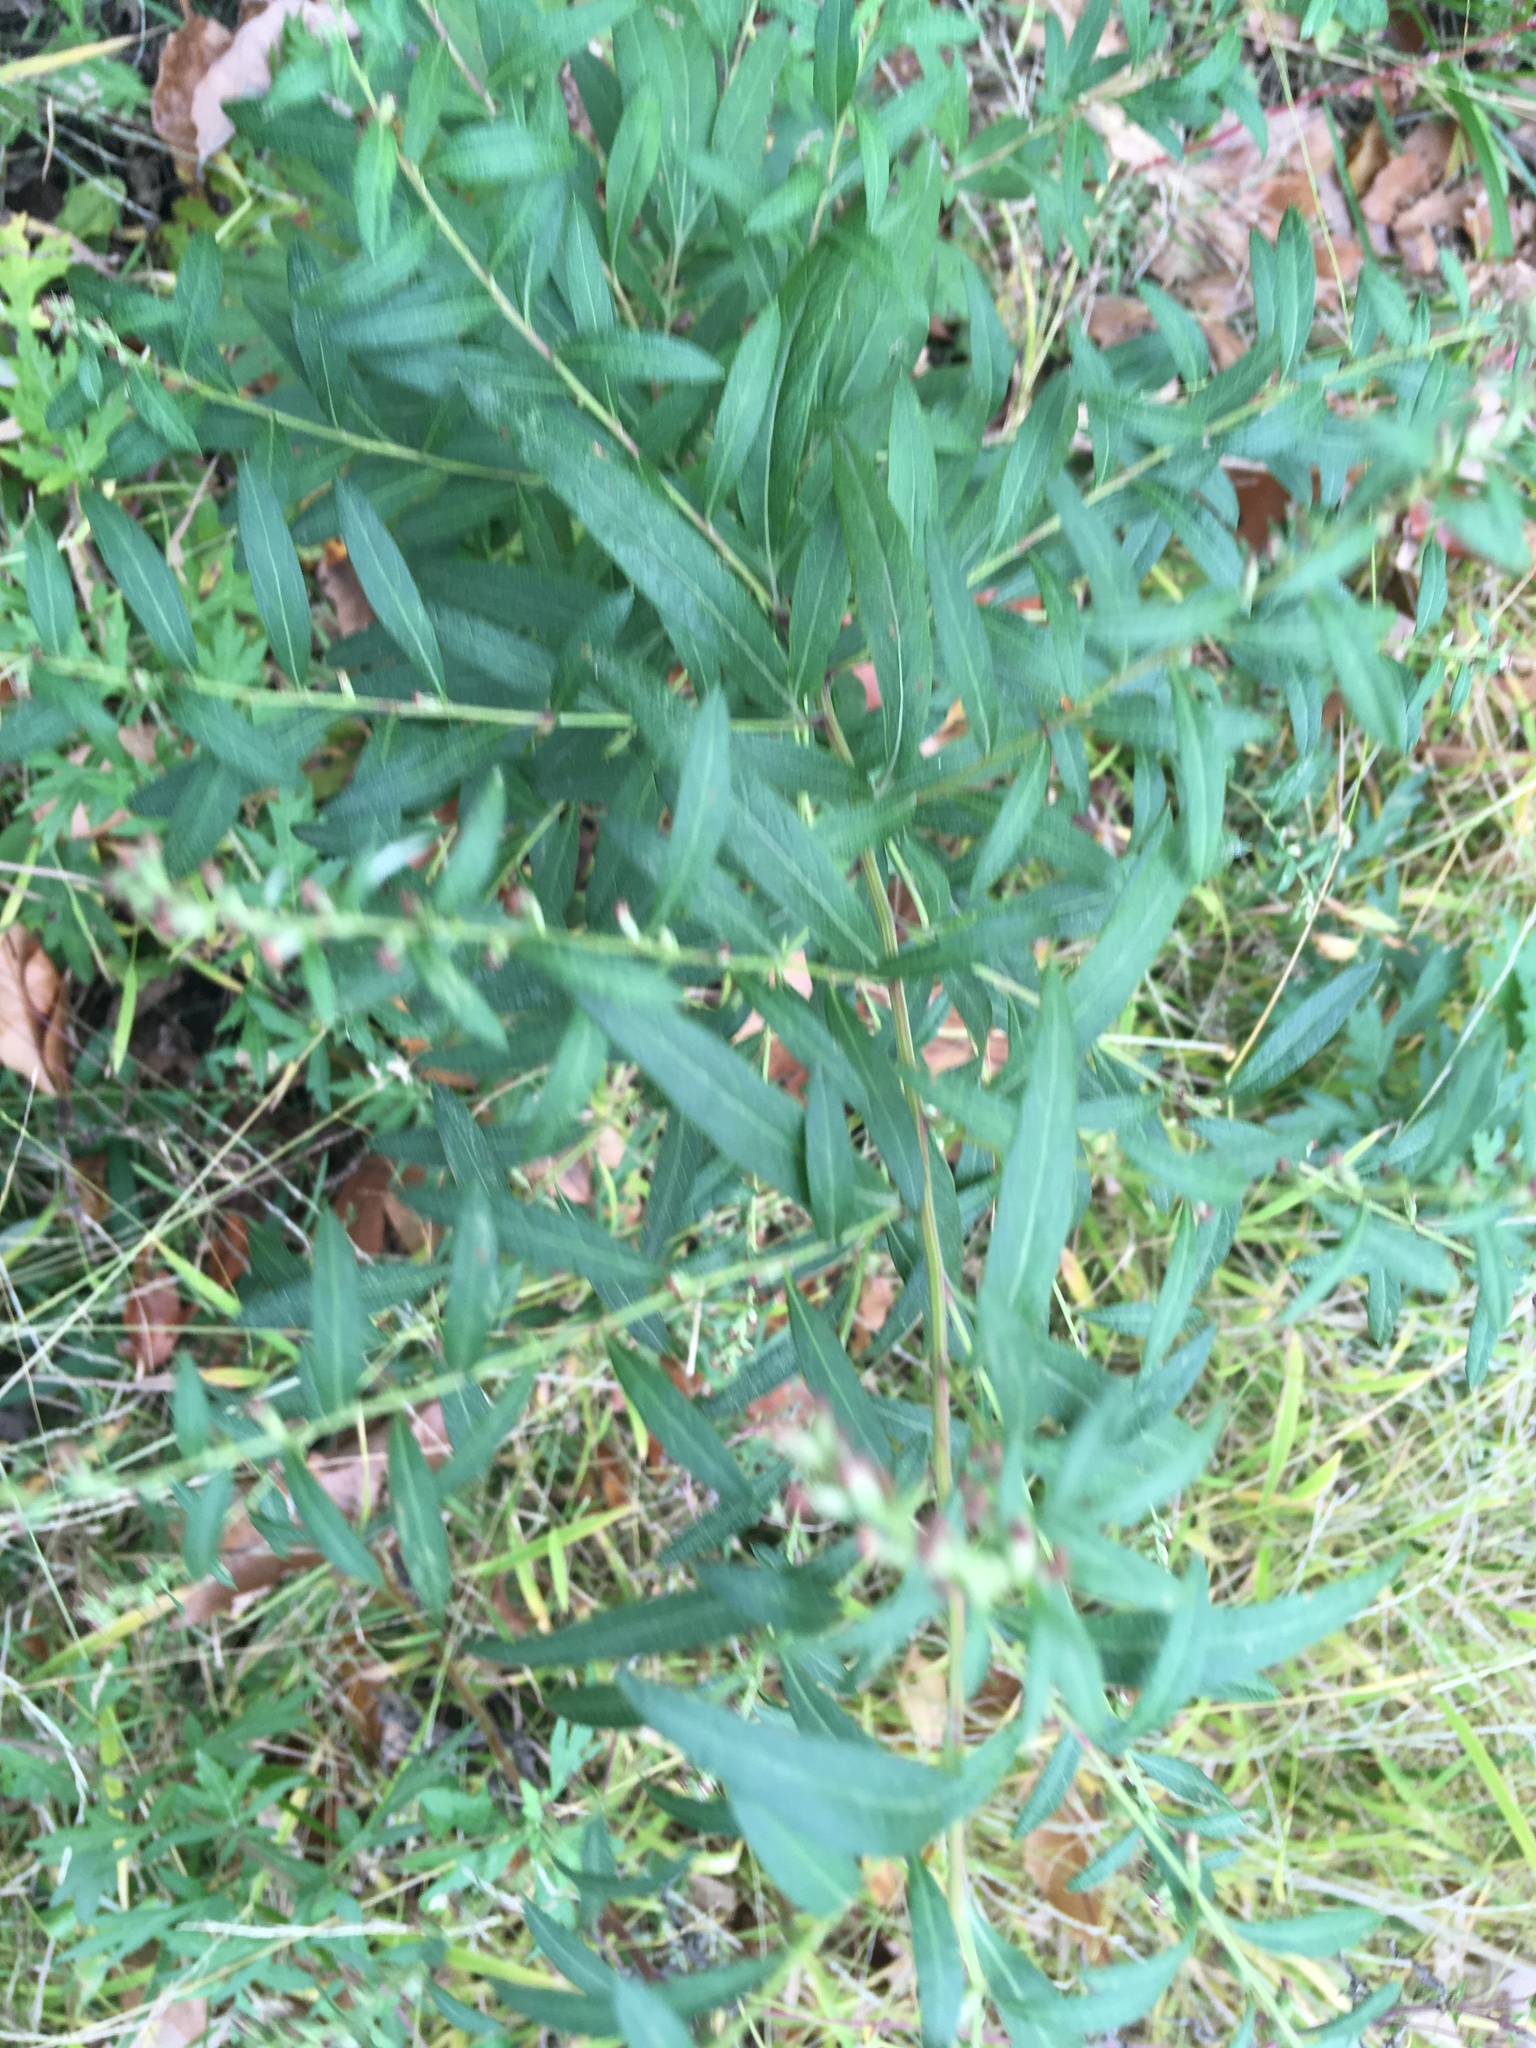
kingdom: Plantae
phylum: Tracheophyta
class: Magnoliopsida
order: Asterales
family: Asteraceae
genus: Artemisia
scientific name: Artemisia vulgaris
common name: Mugwort
